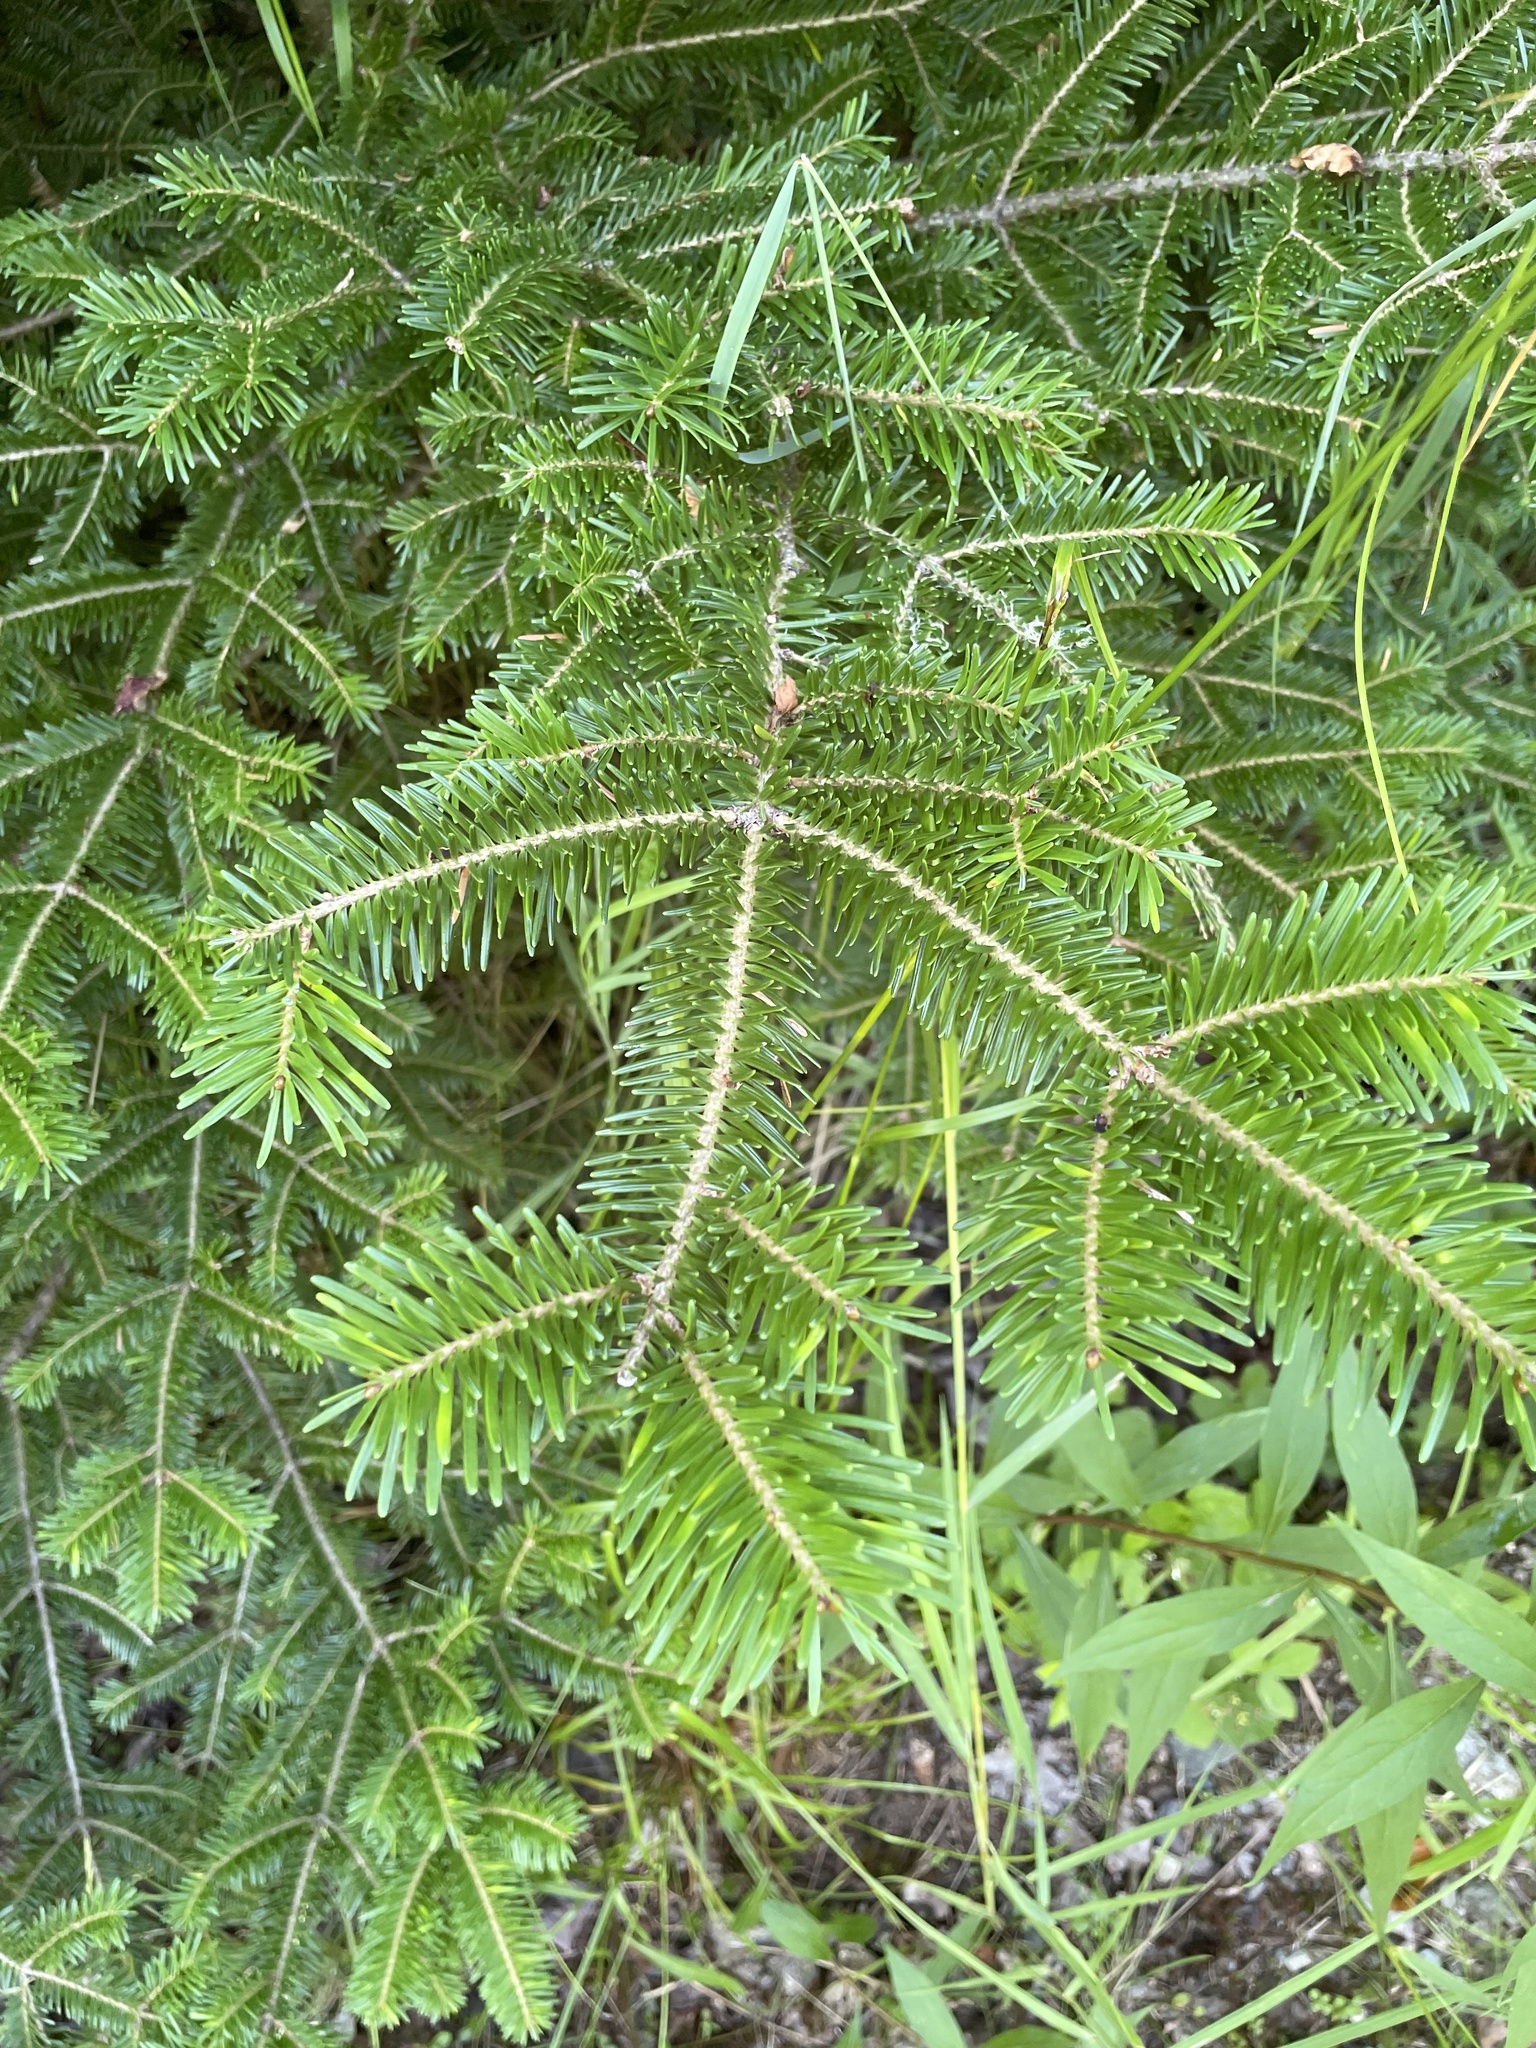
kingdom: Plantae
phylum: Tracheophyta
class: Pinopsida
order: Pinales
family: Pinaceae
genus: Abies
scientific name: Abies balsamea
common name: Balsam fir
